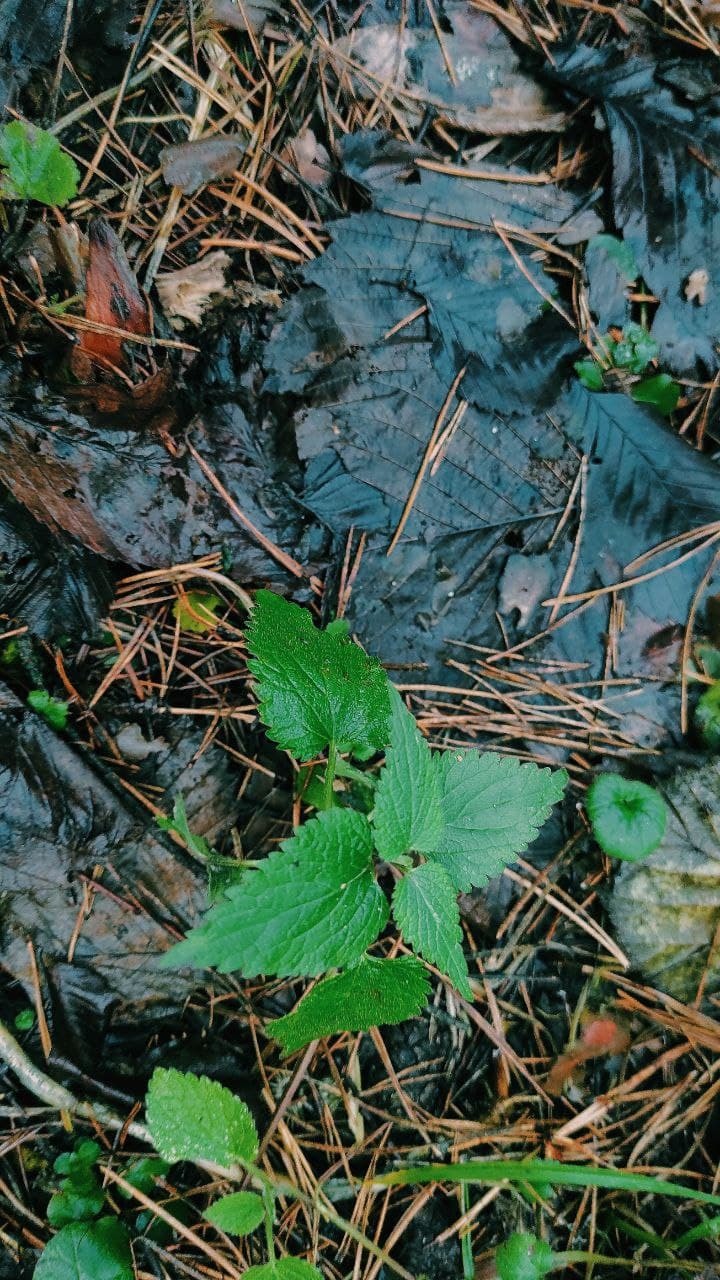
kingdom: Plantae
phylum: Tracheophyta
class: Magnoliopsida
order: Rosales
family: Urticaceae
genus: Urtica
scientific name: Urtica dioica
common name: Common nettle
